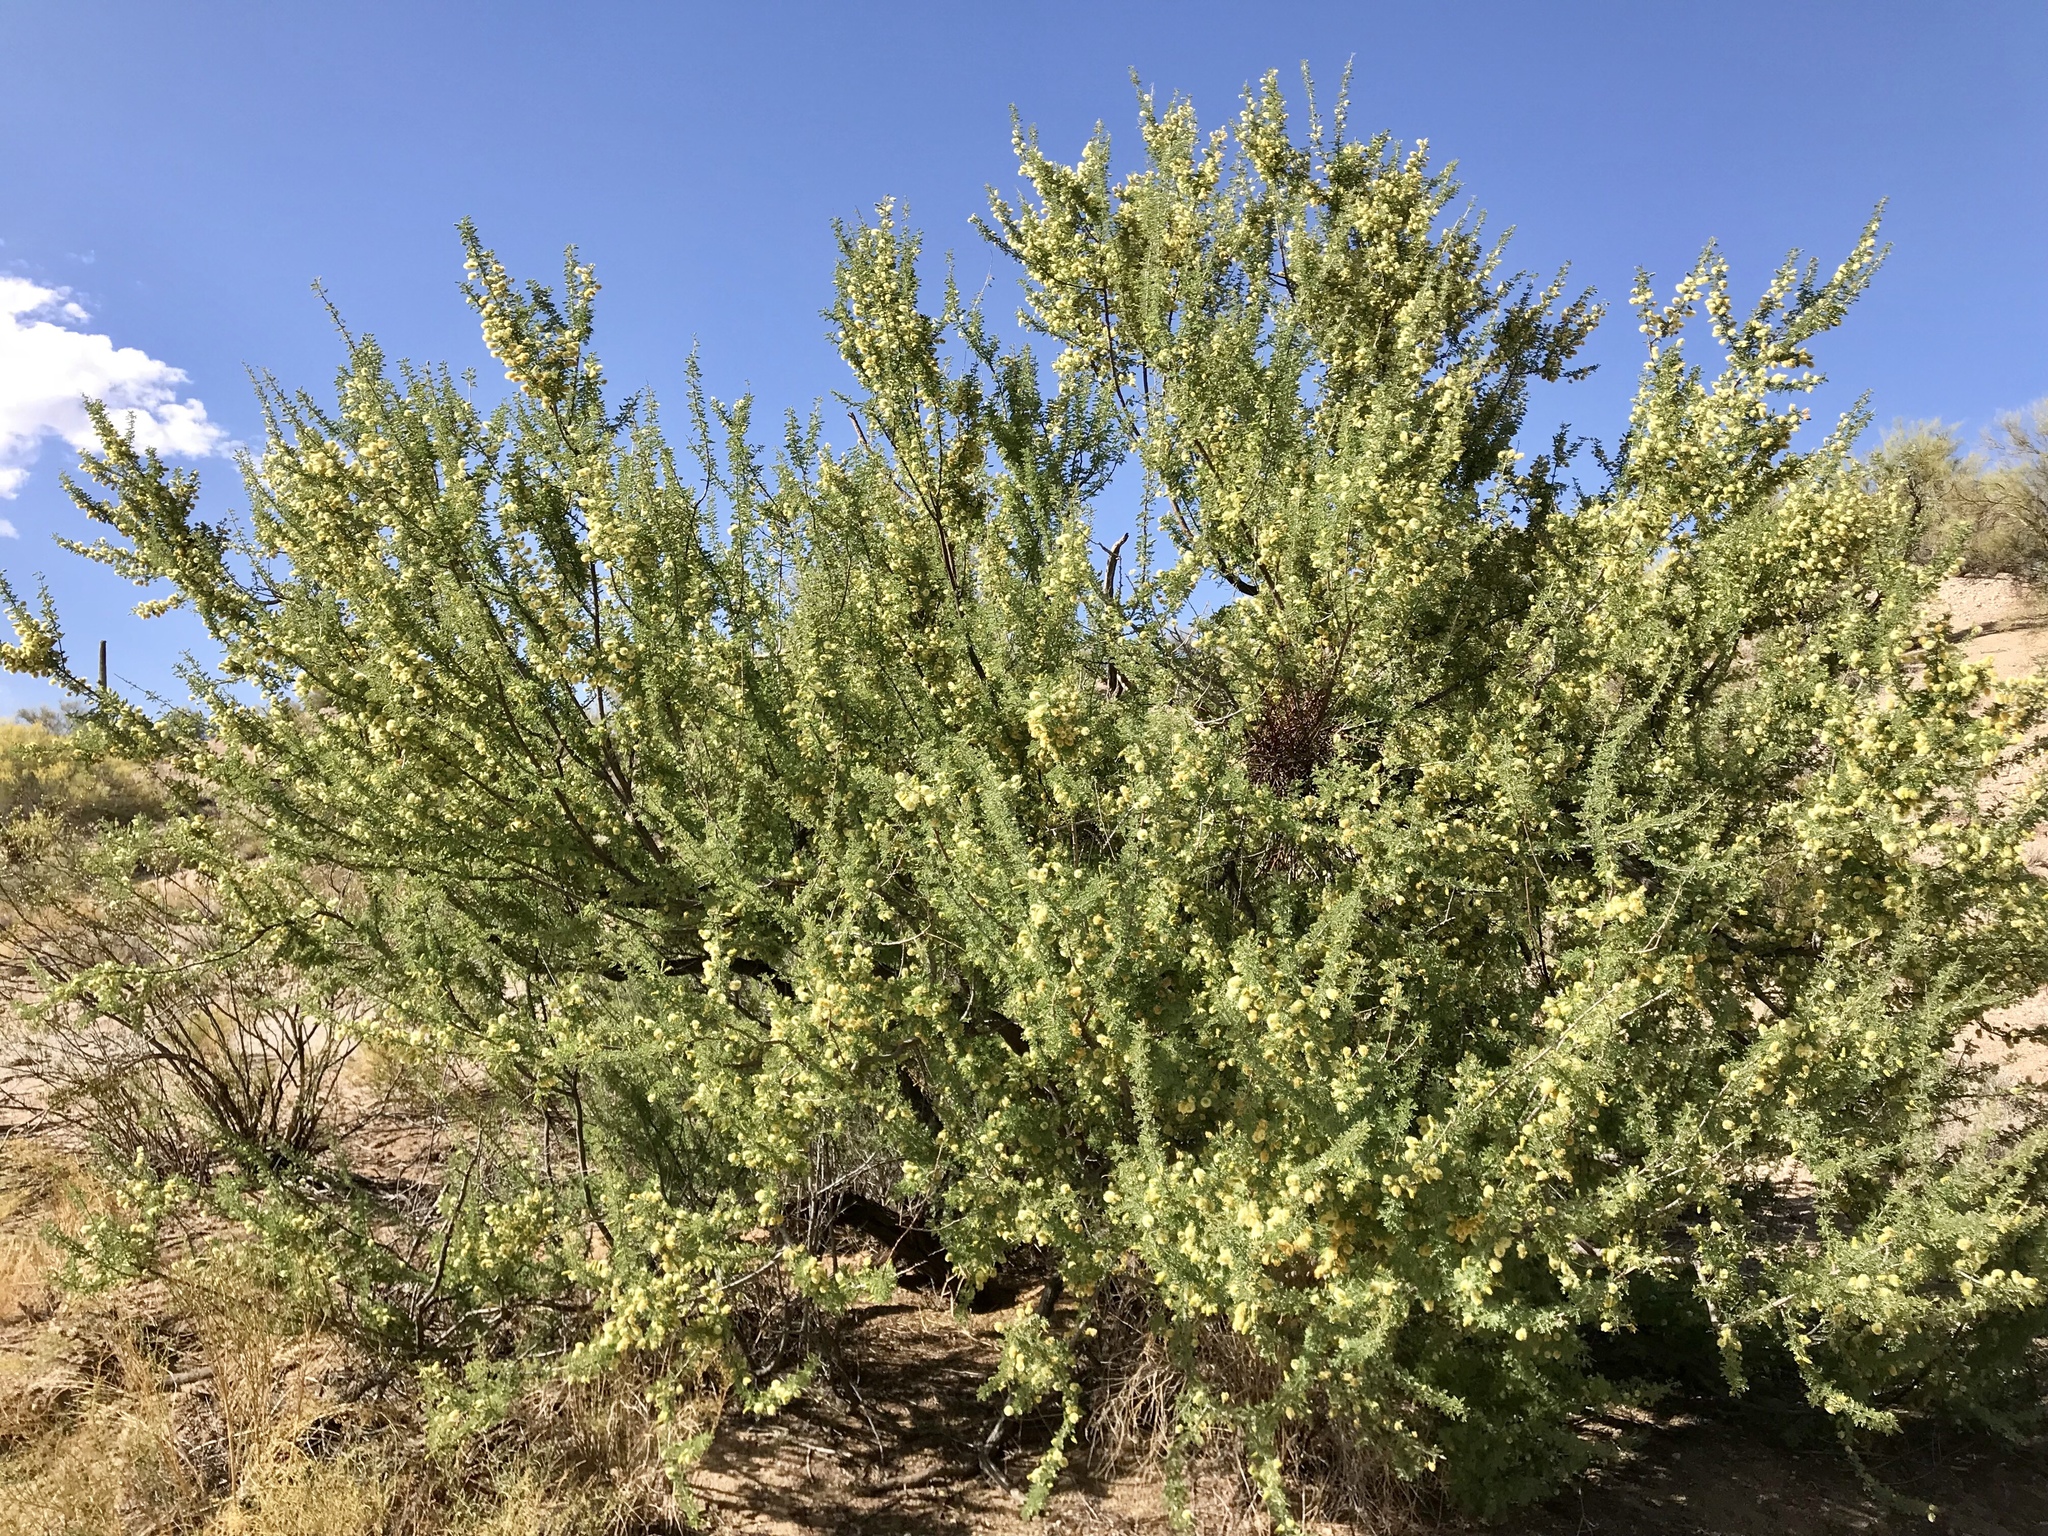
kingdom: Plantae
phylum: Tracheophyta
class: Magnoliopsida
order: Fabales
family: Fabaceae
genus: Senegalia
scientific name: Senegalia greggii
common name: Texas-mimosa
